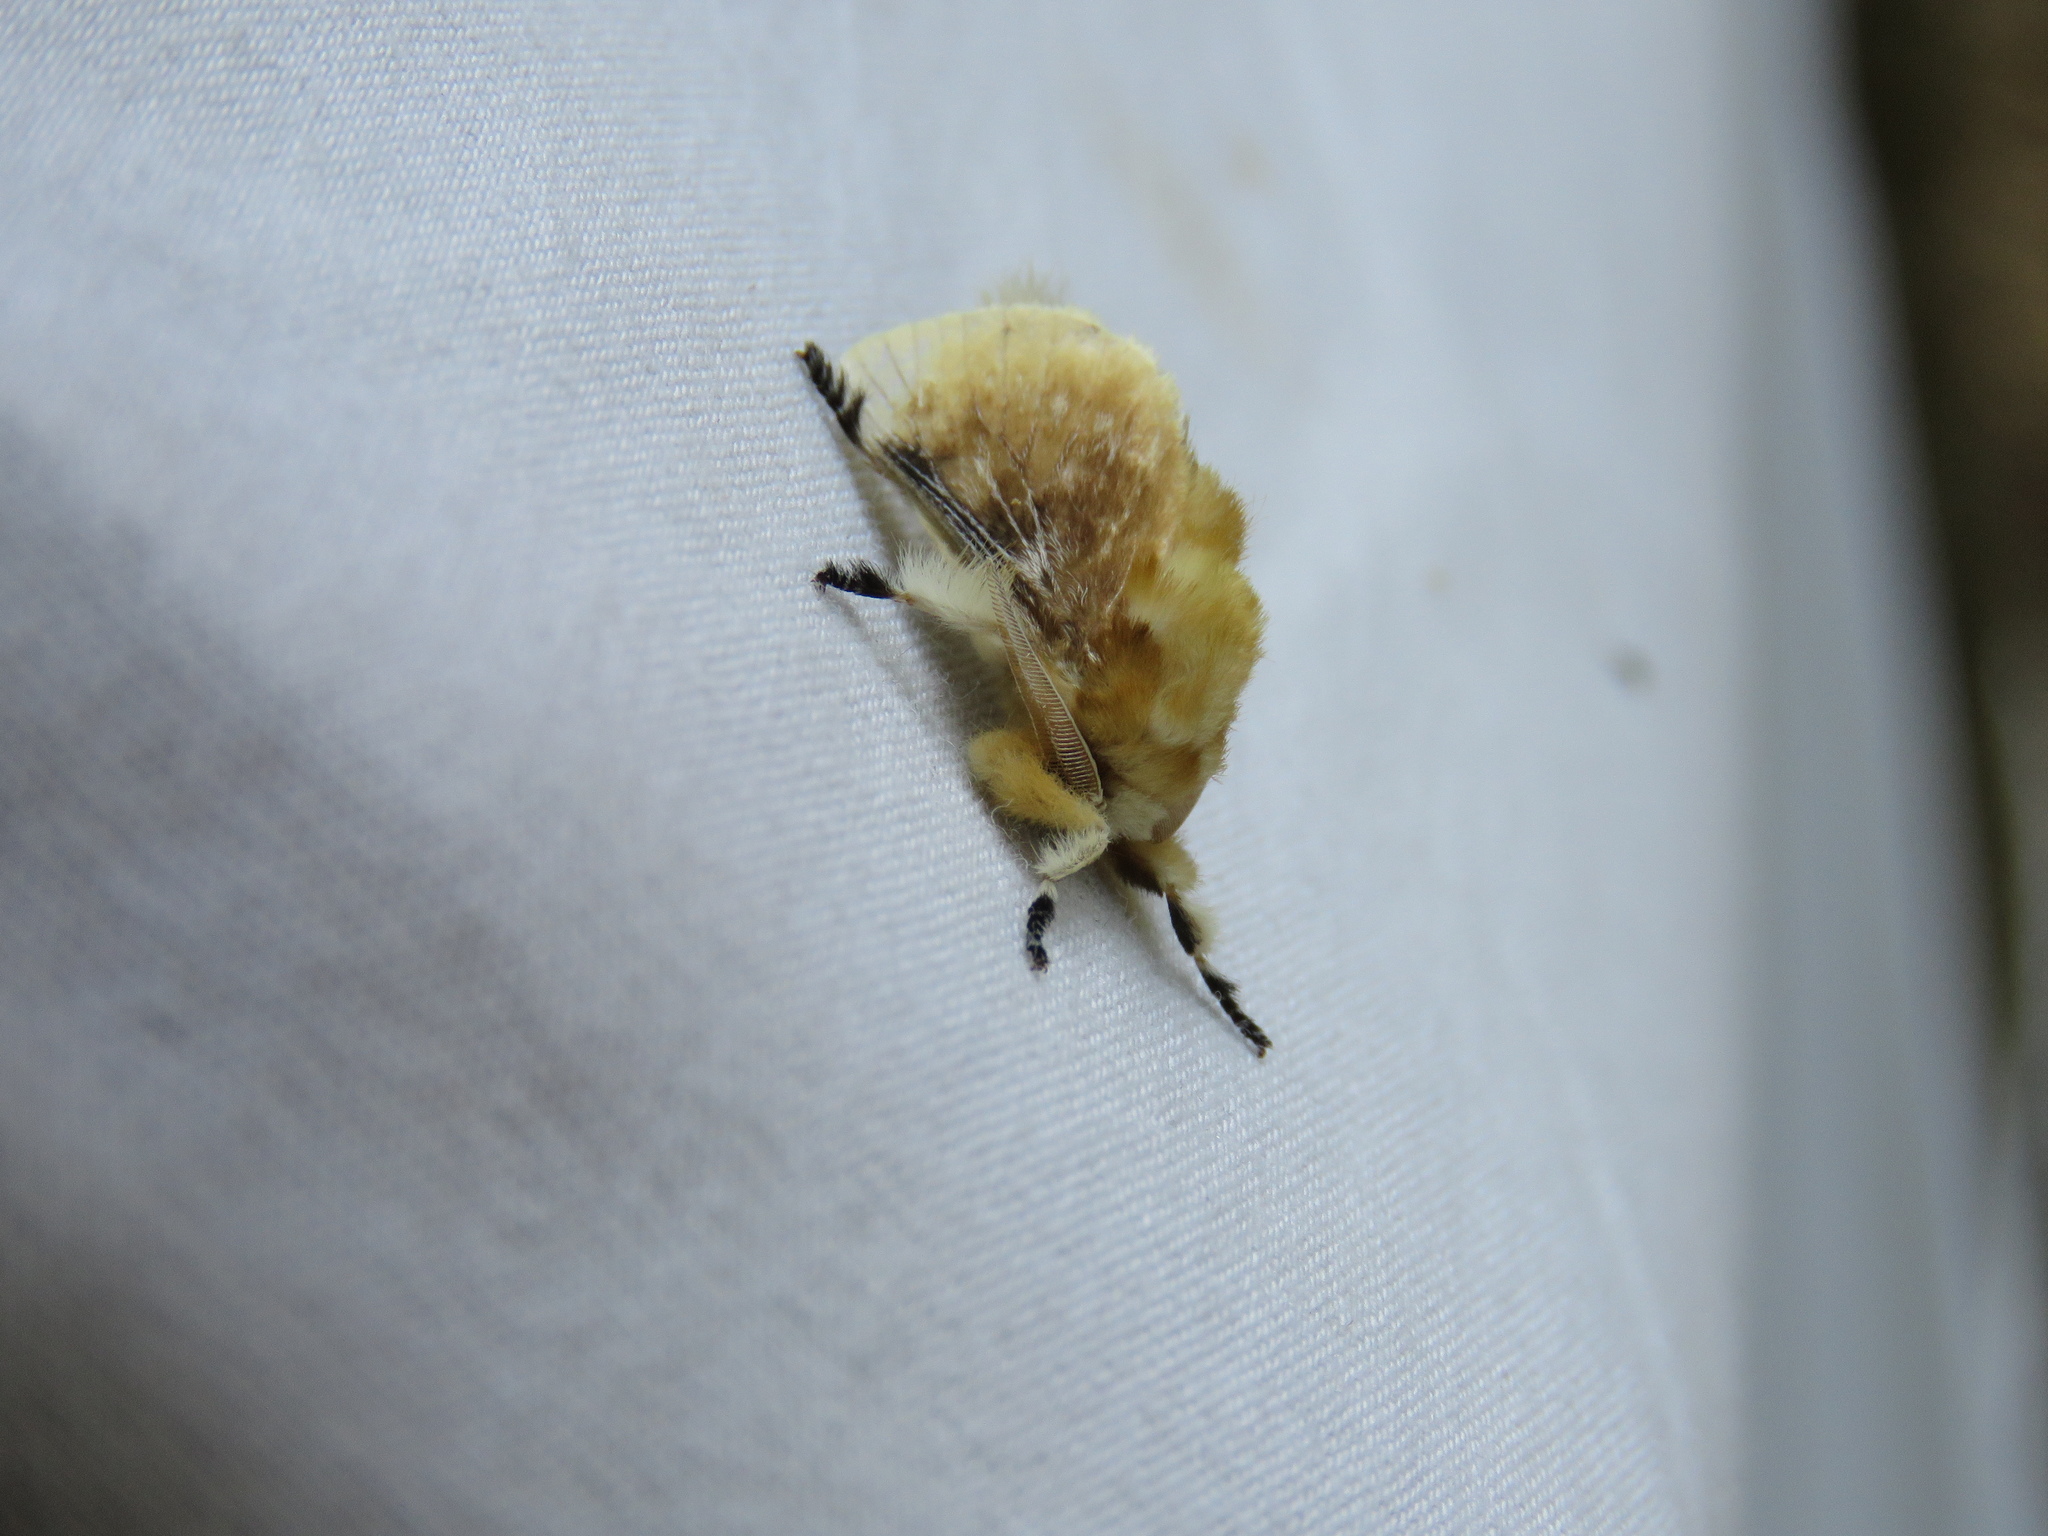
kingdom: Animalia
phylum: Arthropoda
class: Insecta
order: Lepidoptera
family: Megalopygidae
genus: Megalopyge
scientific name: Megalopyge opercularis
